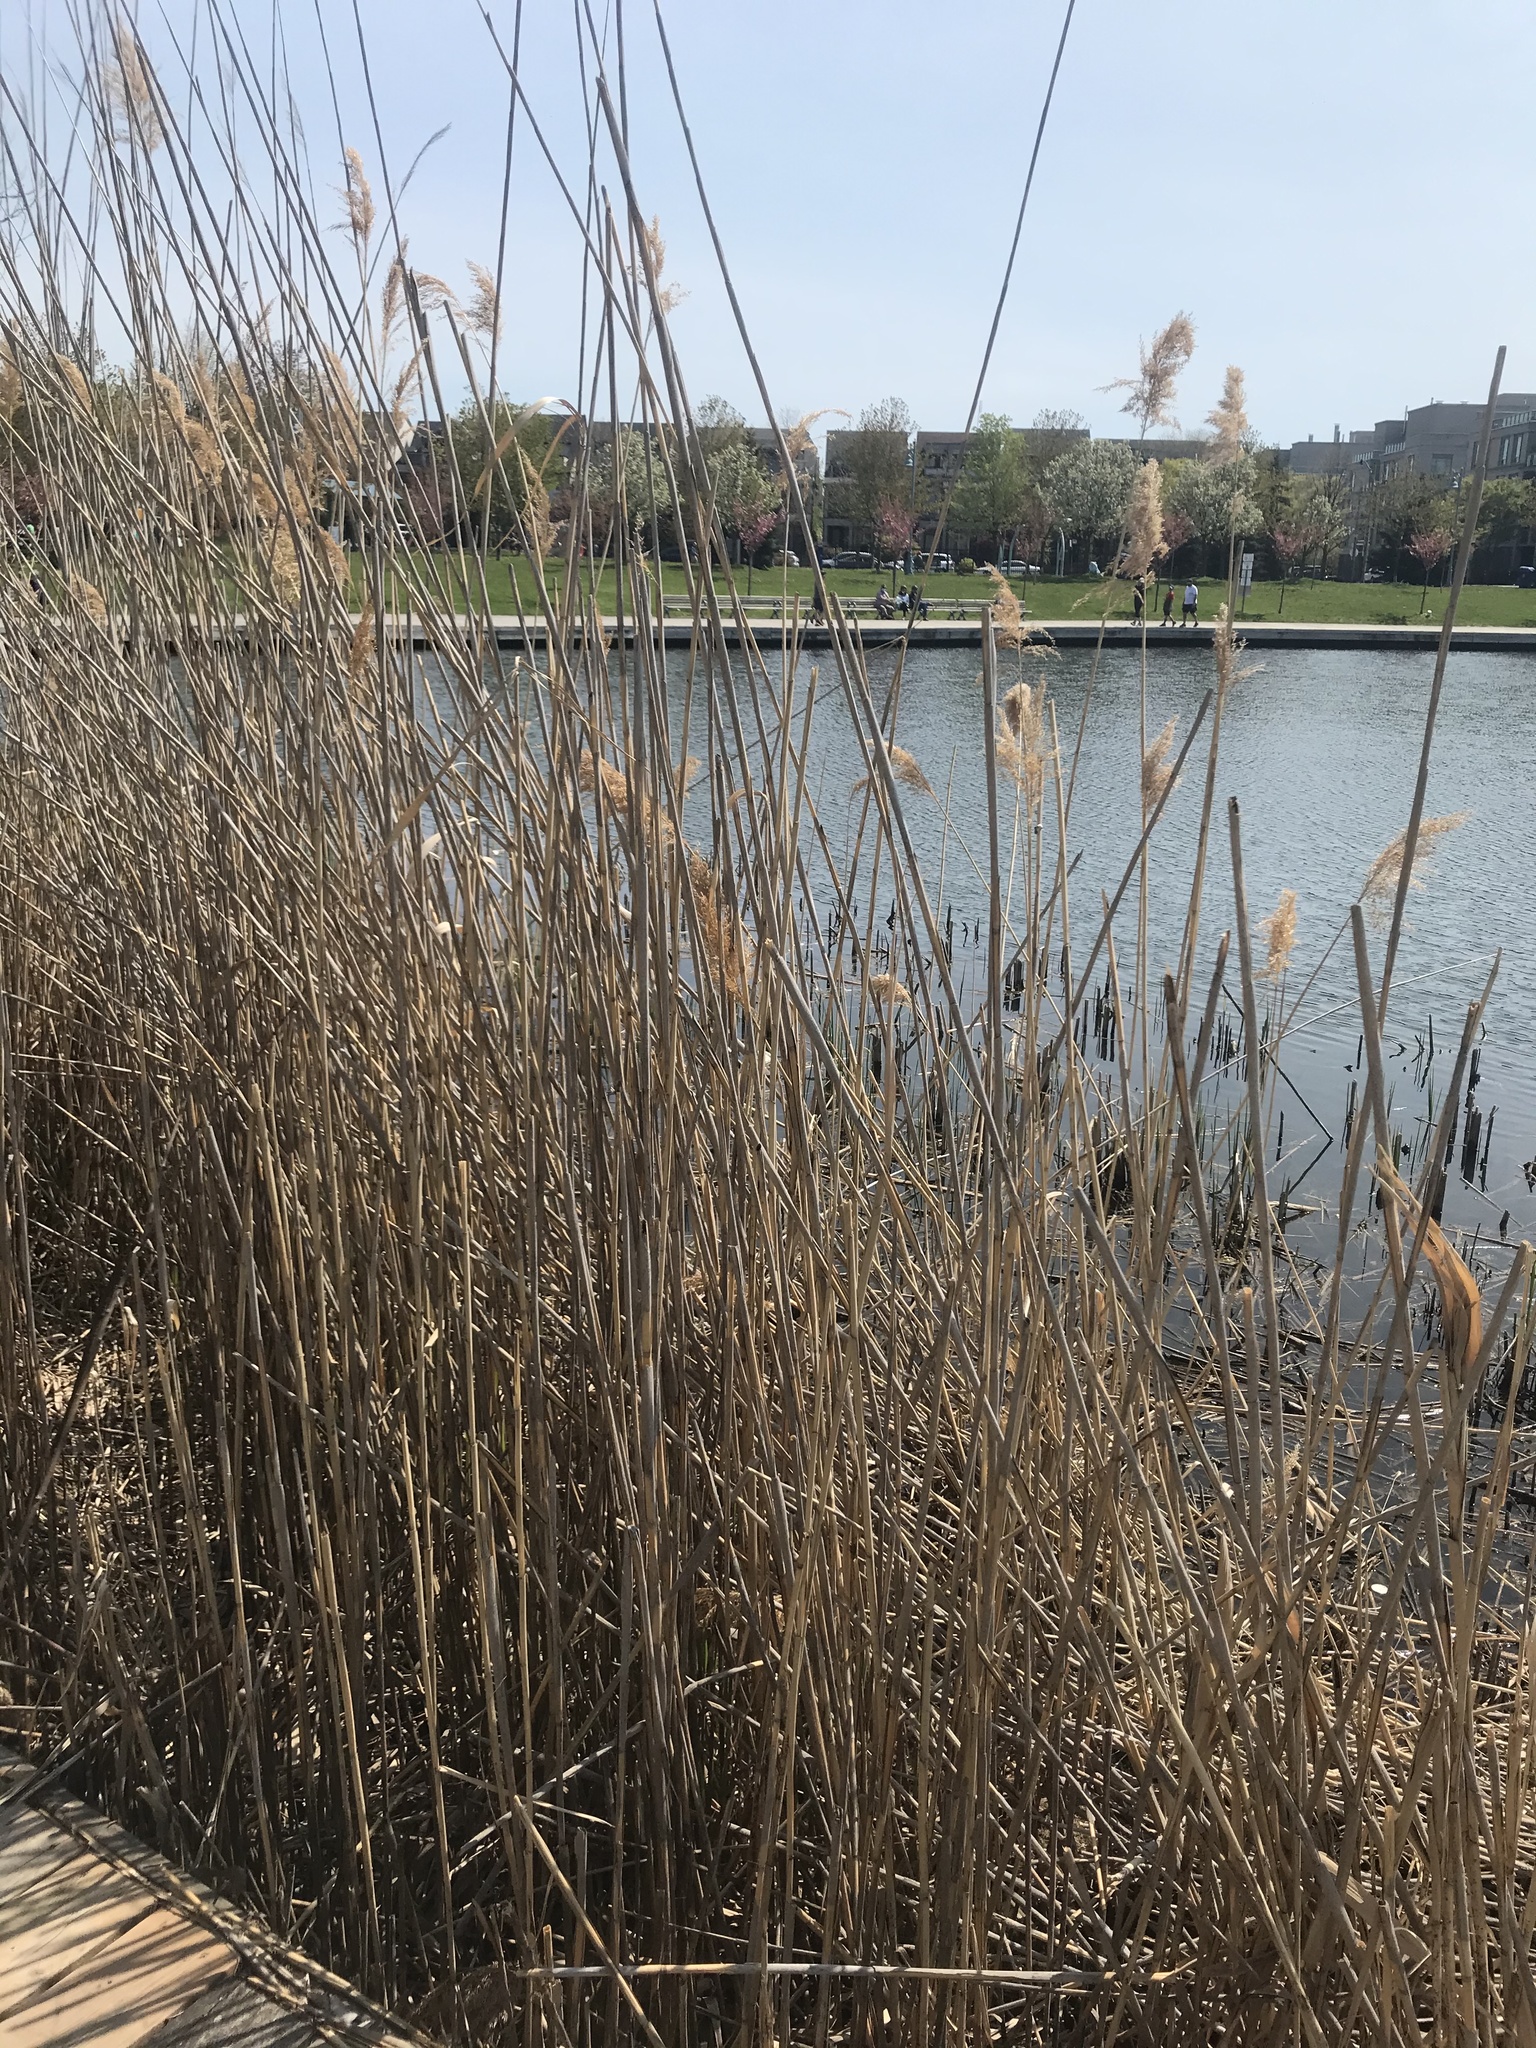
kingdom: Plantae
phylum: Tracheophyta
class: Liliopsida
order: Poales
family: Poaceae
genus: Phragmites
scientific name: Phragmites australis
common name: Common reed
